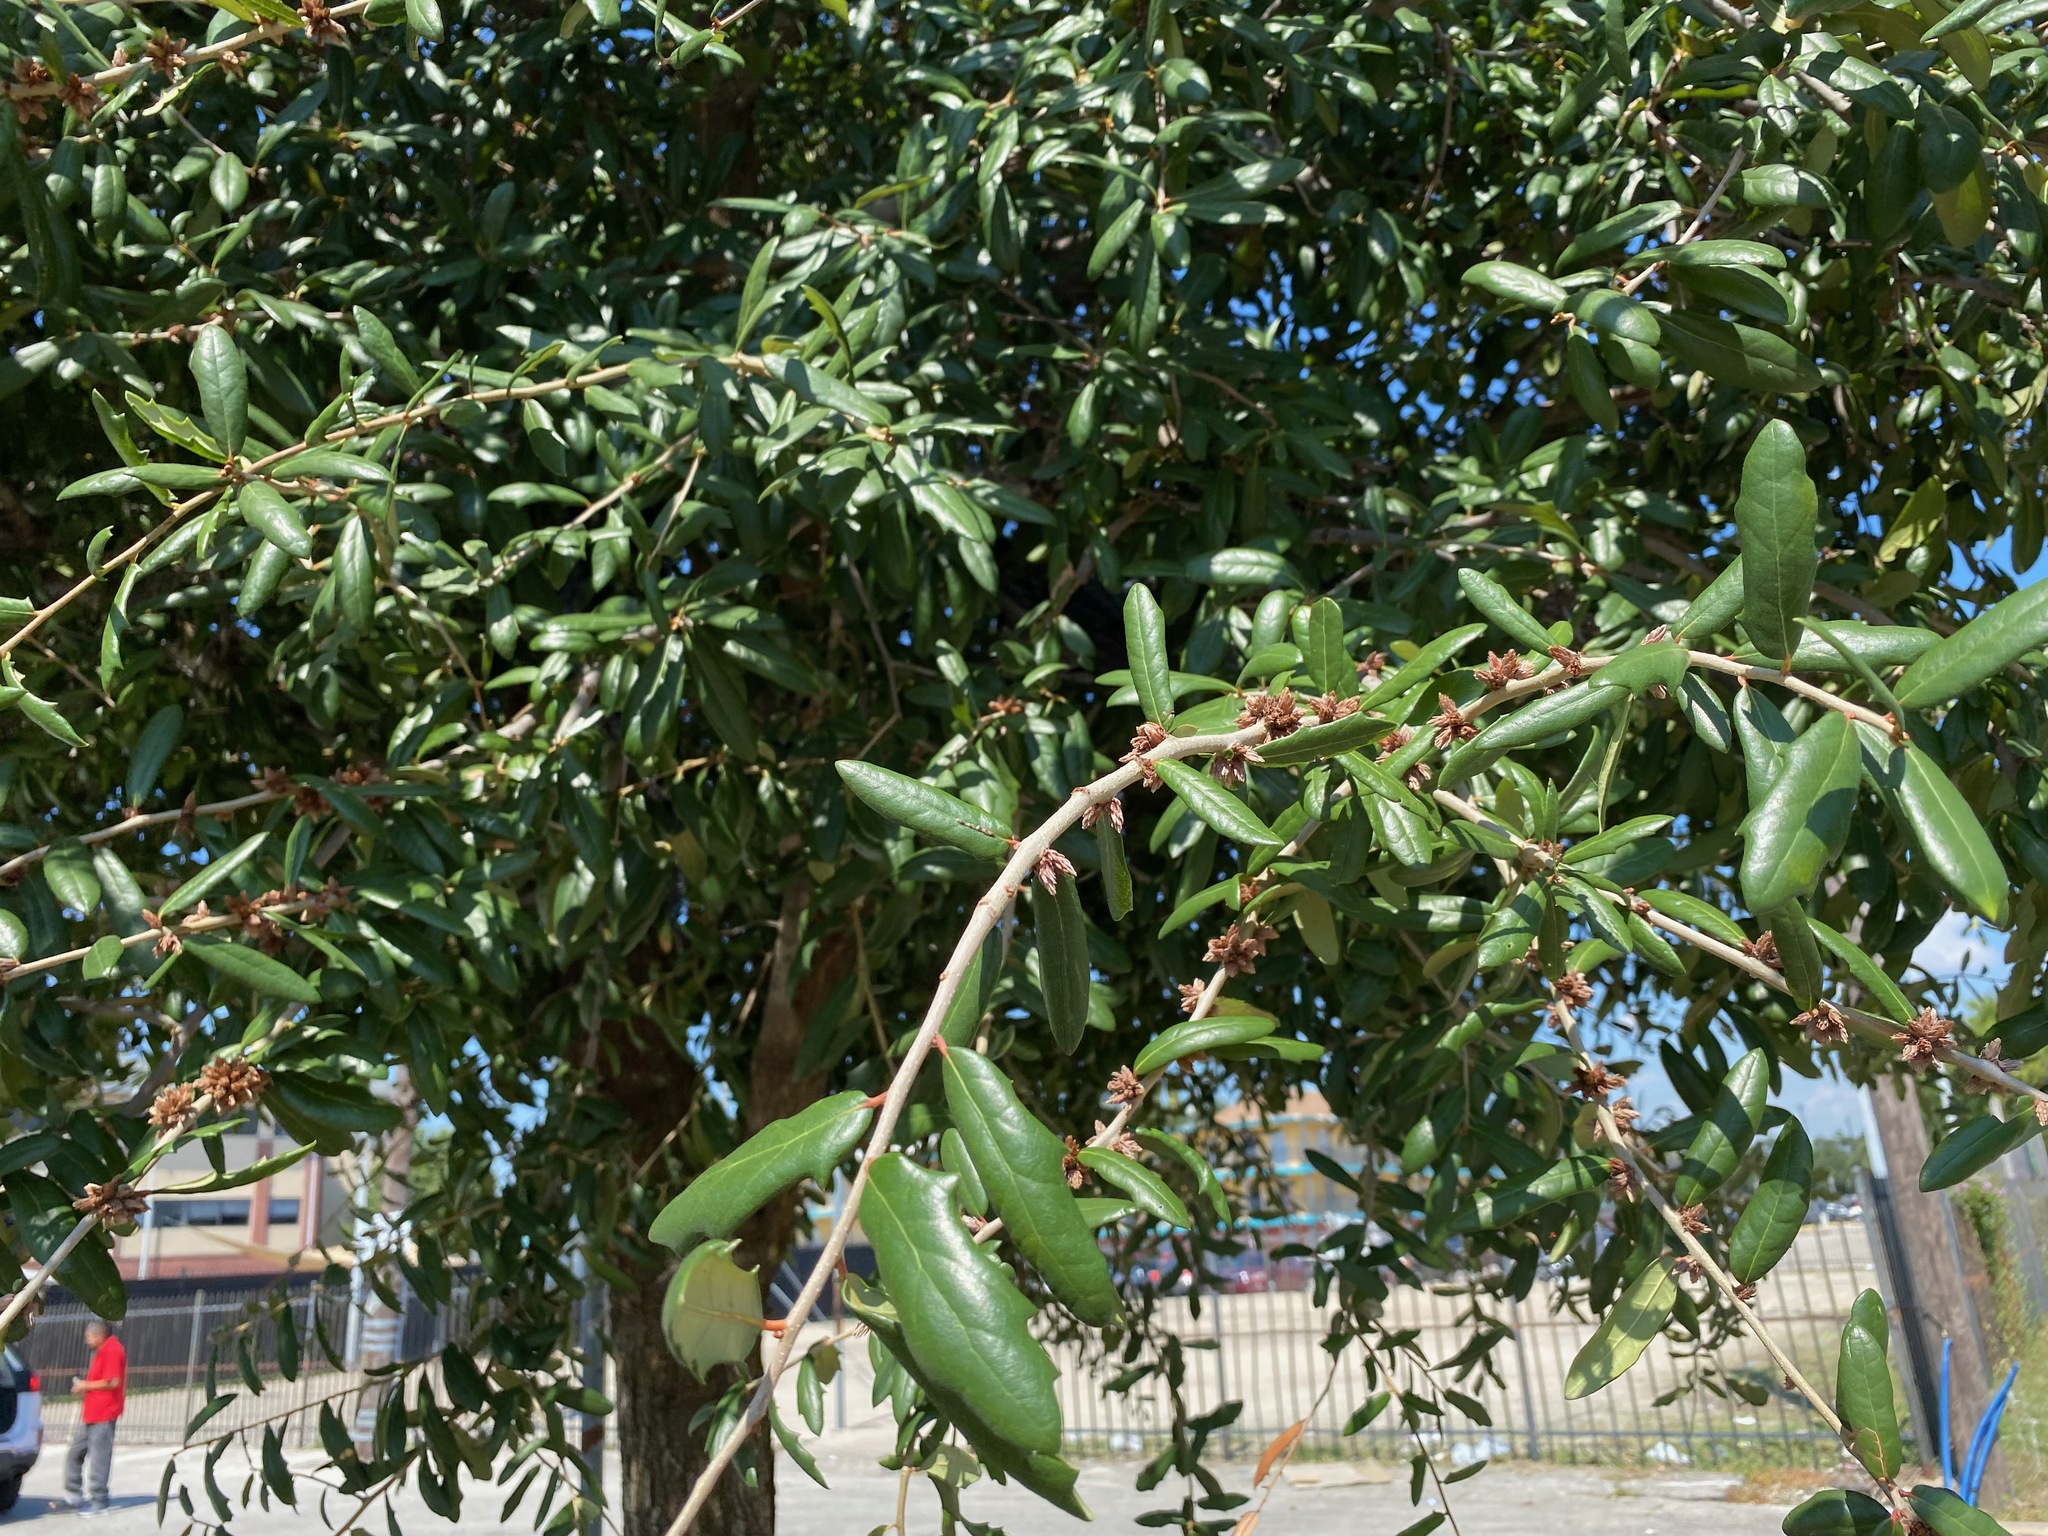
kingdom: Plantae
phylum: Tracheophyta
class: Magnoliopsida
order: Fagales
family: Fagaceae
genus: Quercus
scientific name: Quercus virginiana
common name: Southern live oak
